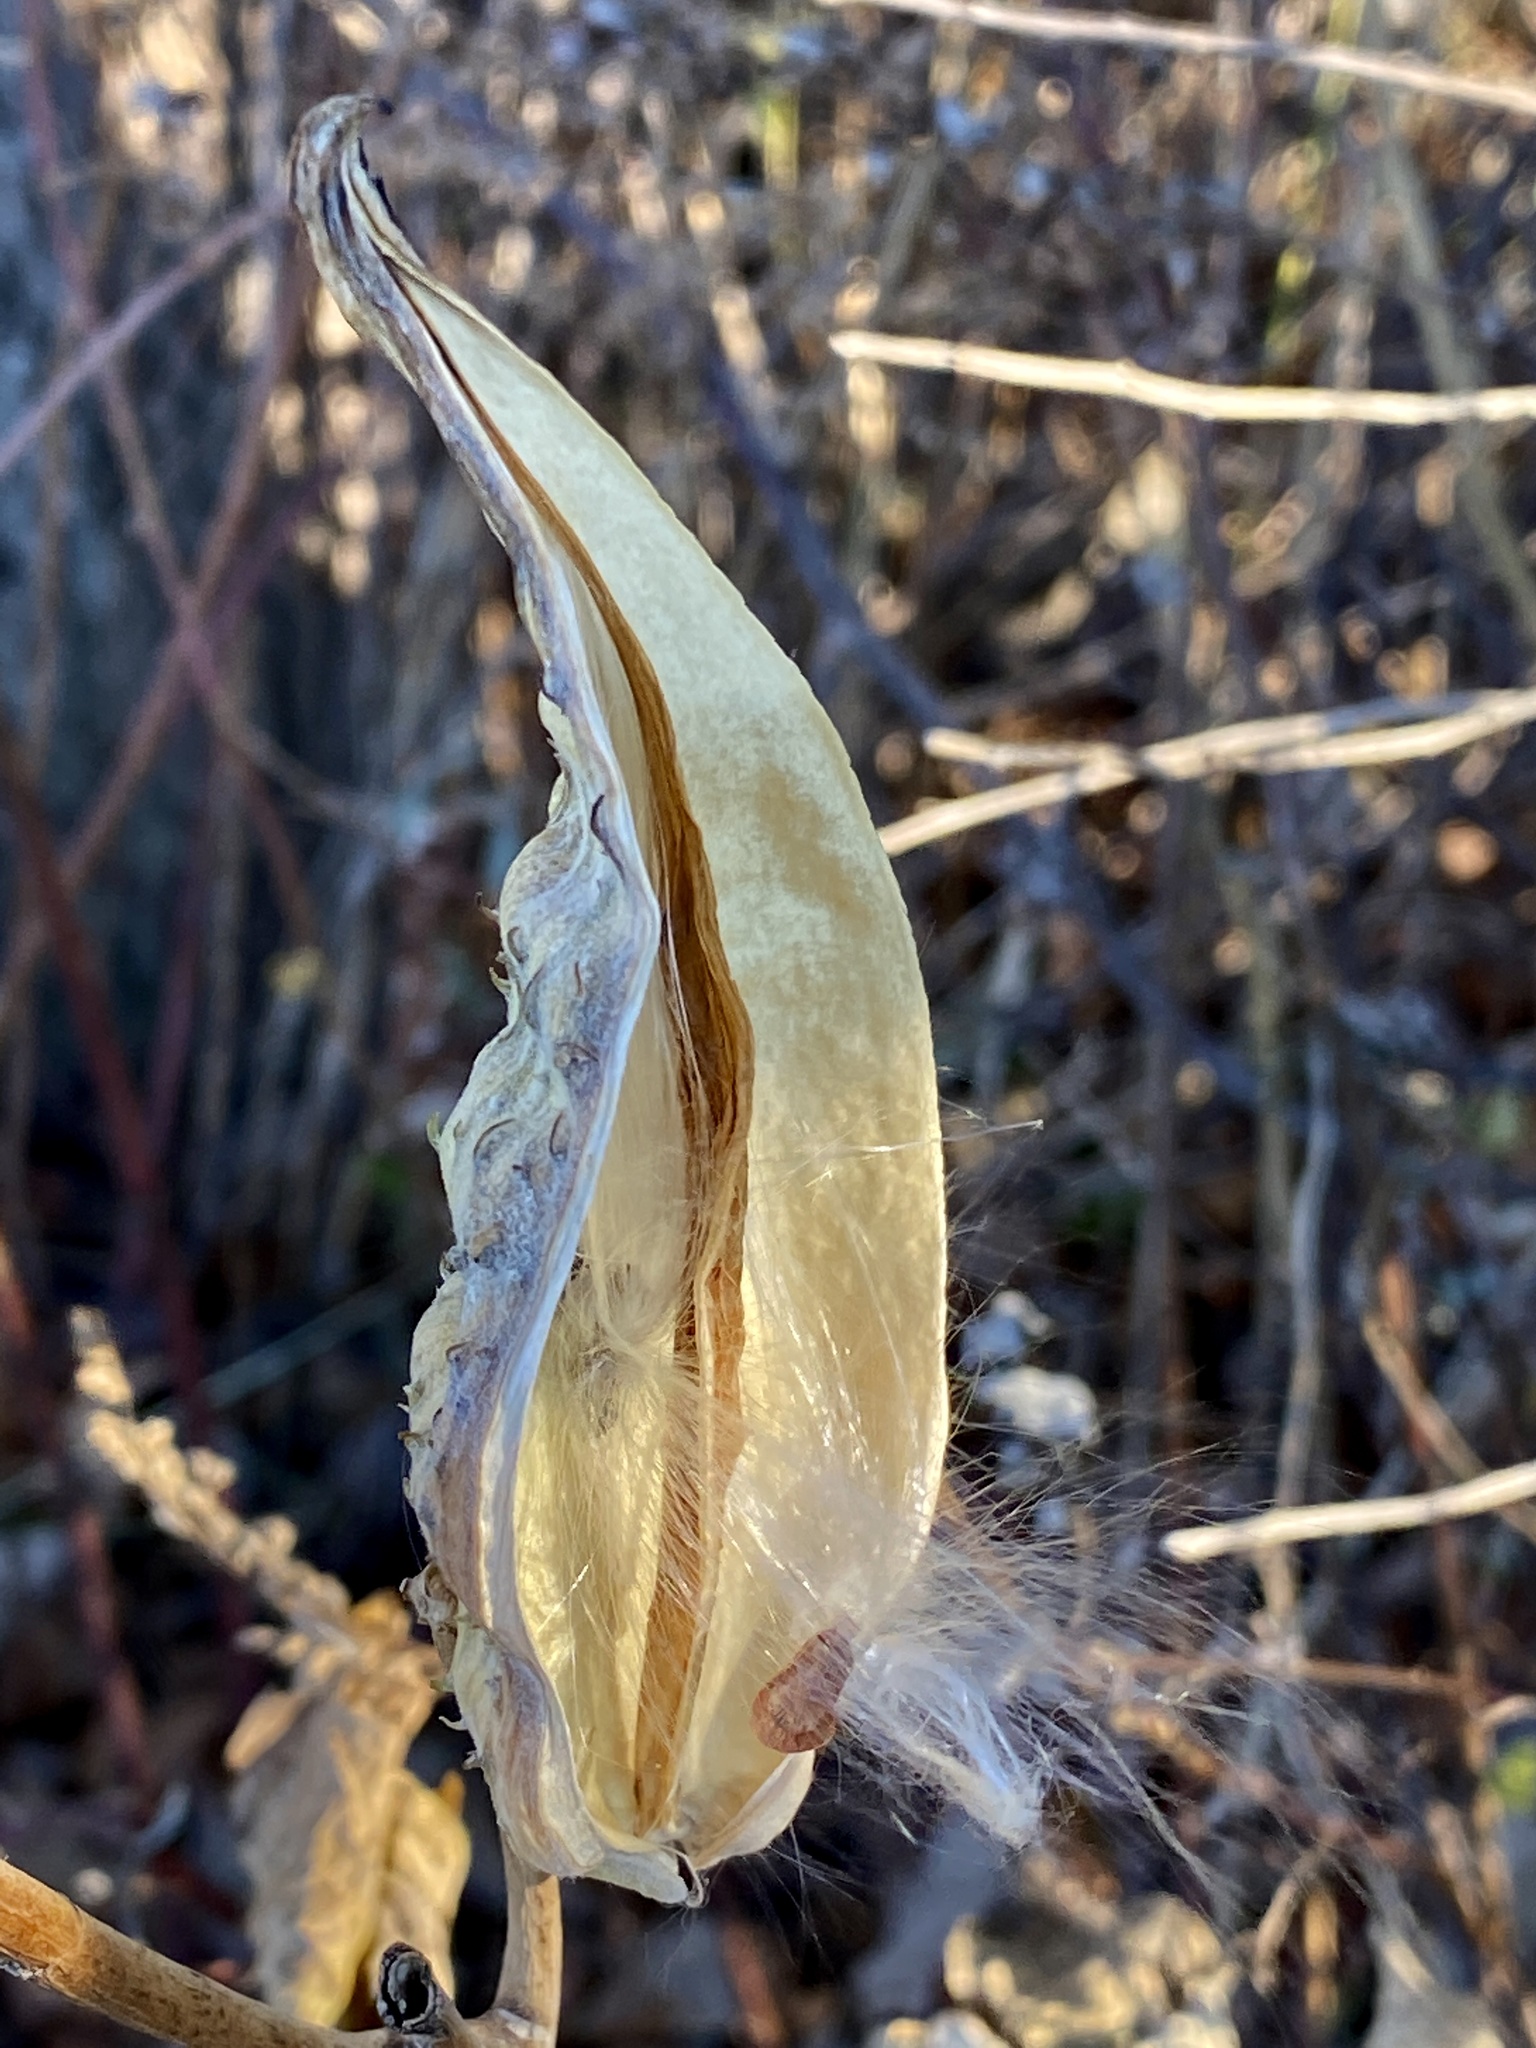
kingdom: Plantae
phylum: Tracheophyta
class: Magnoliopsida
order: Gentianales
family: Apocynaceae
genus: Asclepias
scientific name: Asclepias syriaca
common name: Common milkweed
